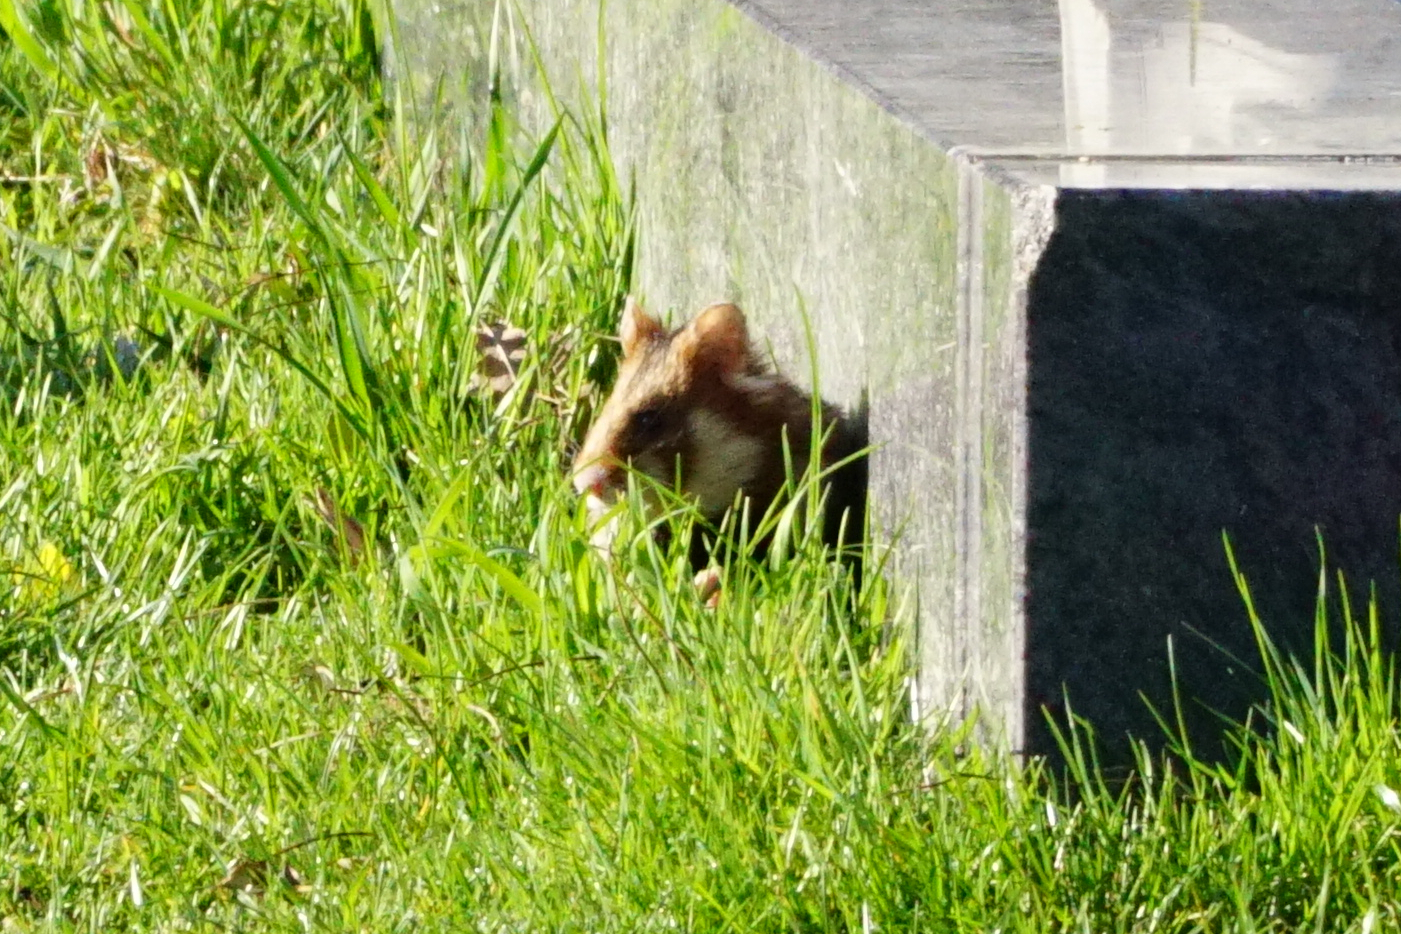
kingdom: Animalia
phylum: Chordata
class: Mammalia
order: Rodentia
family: Cricetidae
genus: Cricetus
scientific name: Cricetus cricetus
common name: Common hamster
